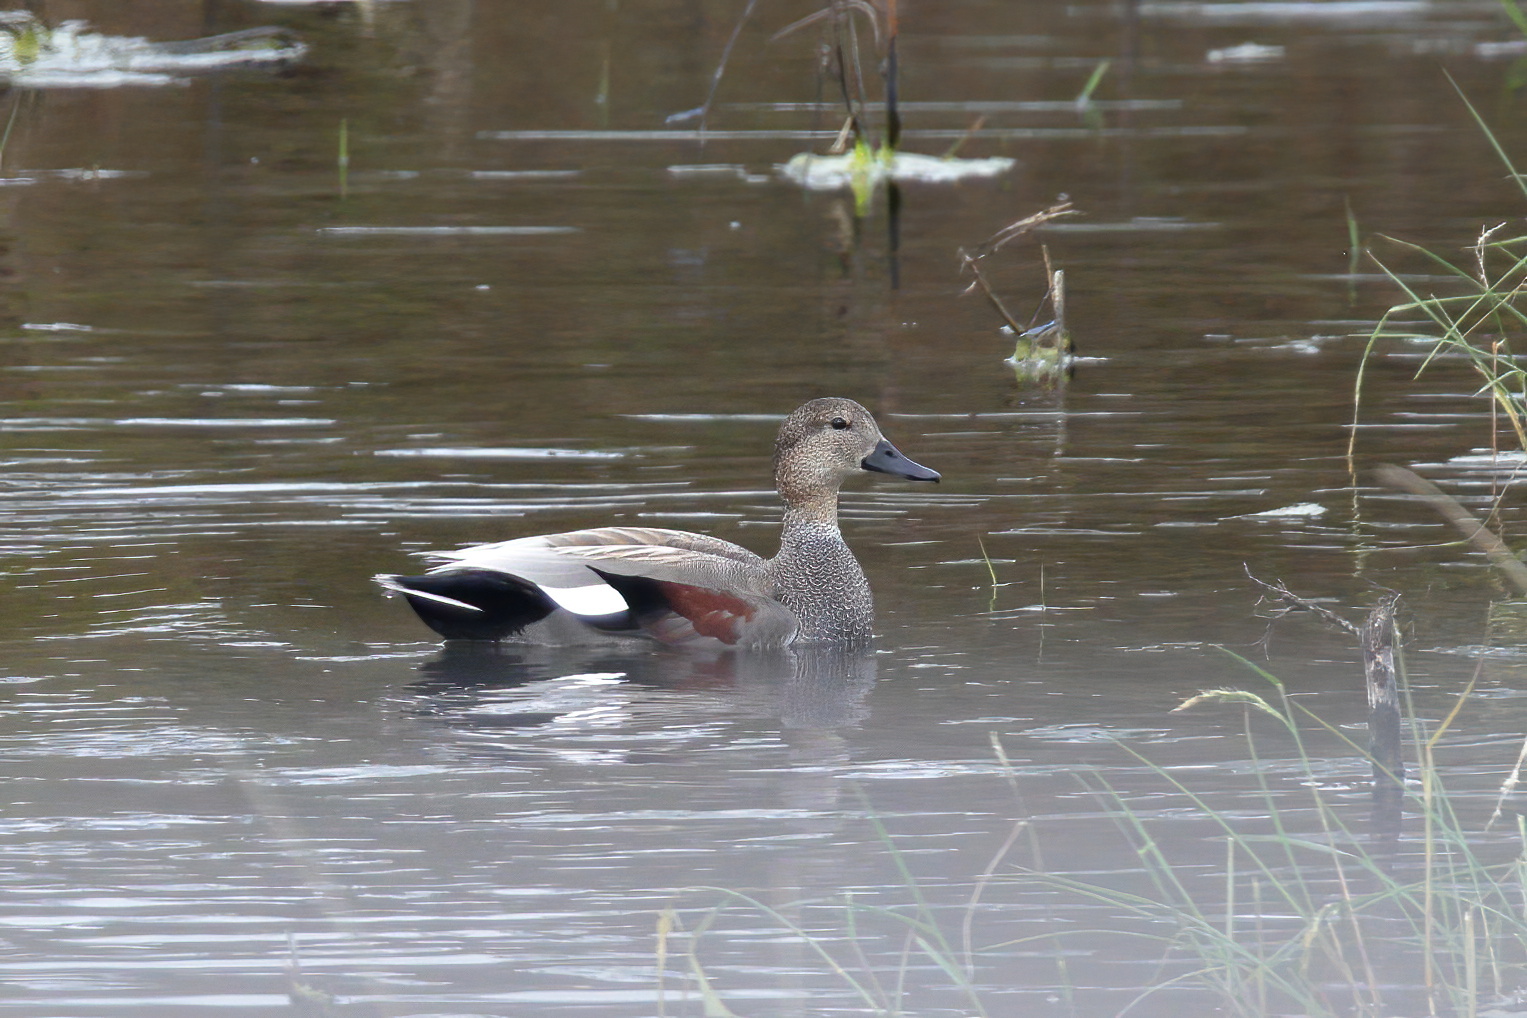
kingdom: Animalia
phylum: Chordata
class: Aves
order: Anseriformes
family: Anatidae
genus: Mareca
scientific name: Mareca strepera
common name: Gadwall
